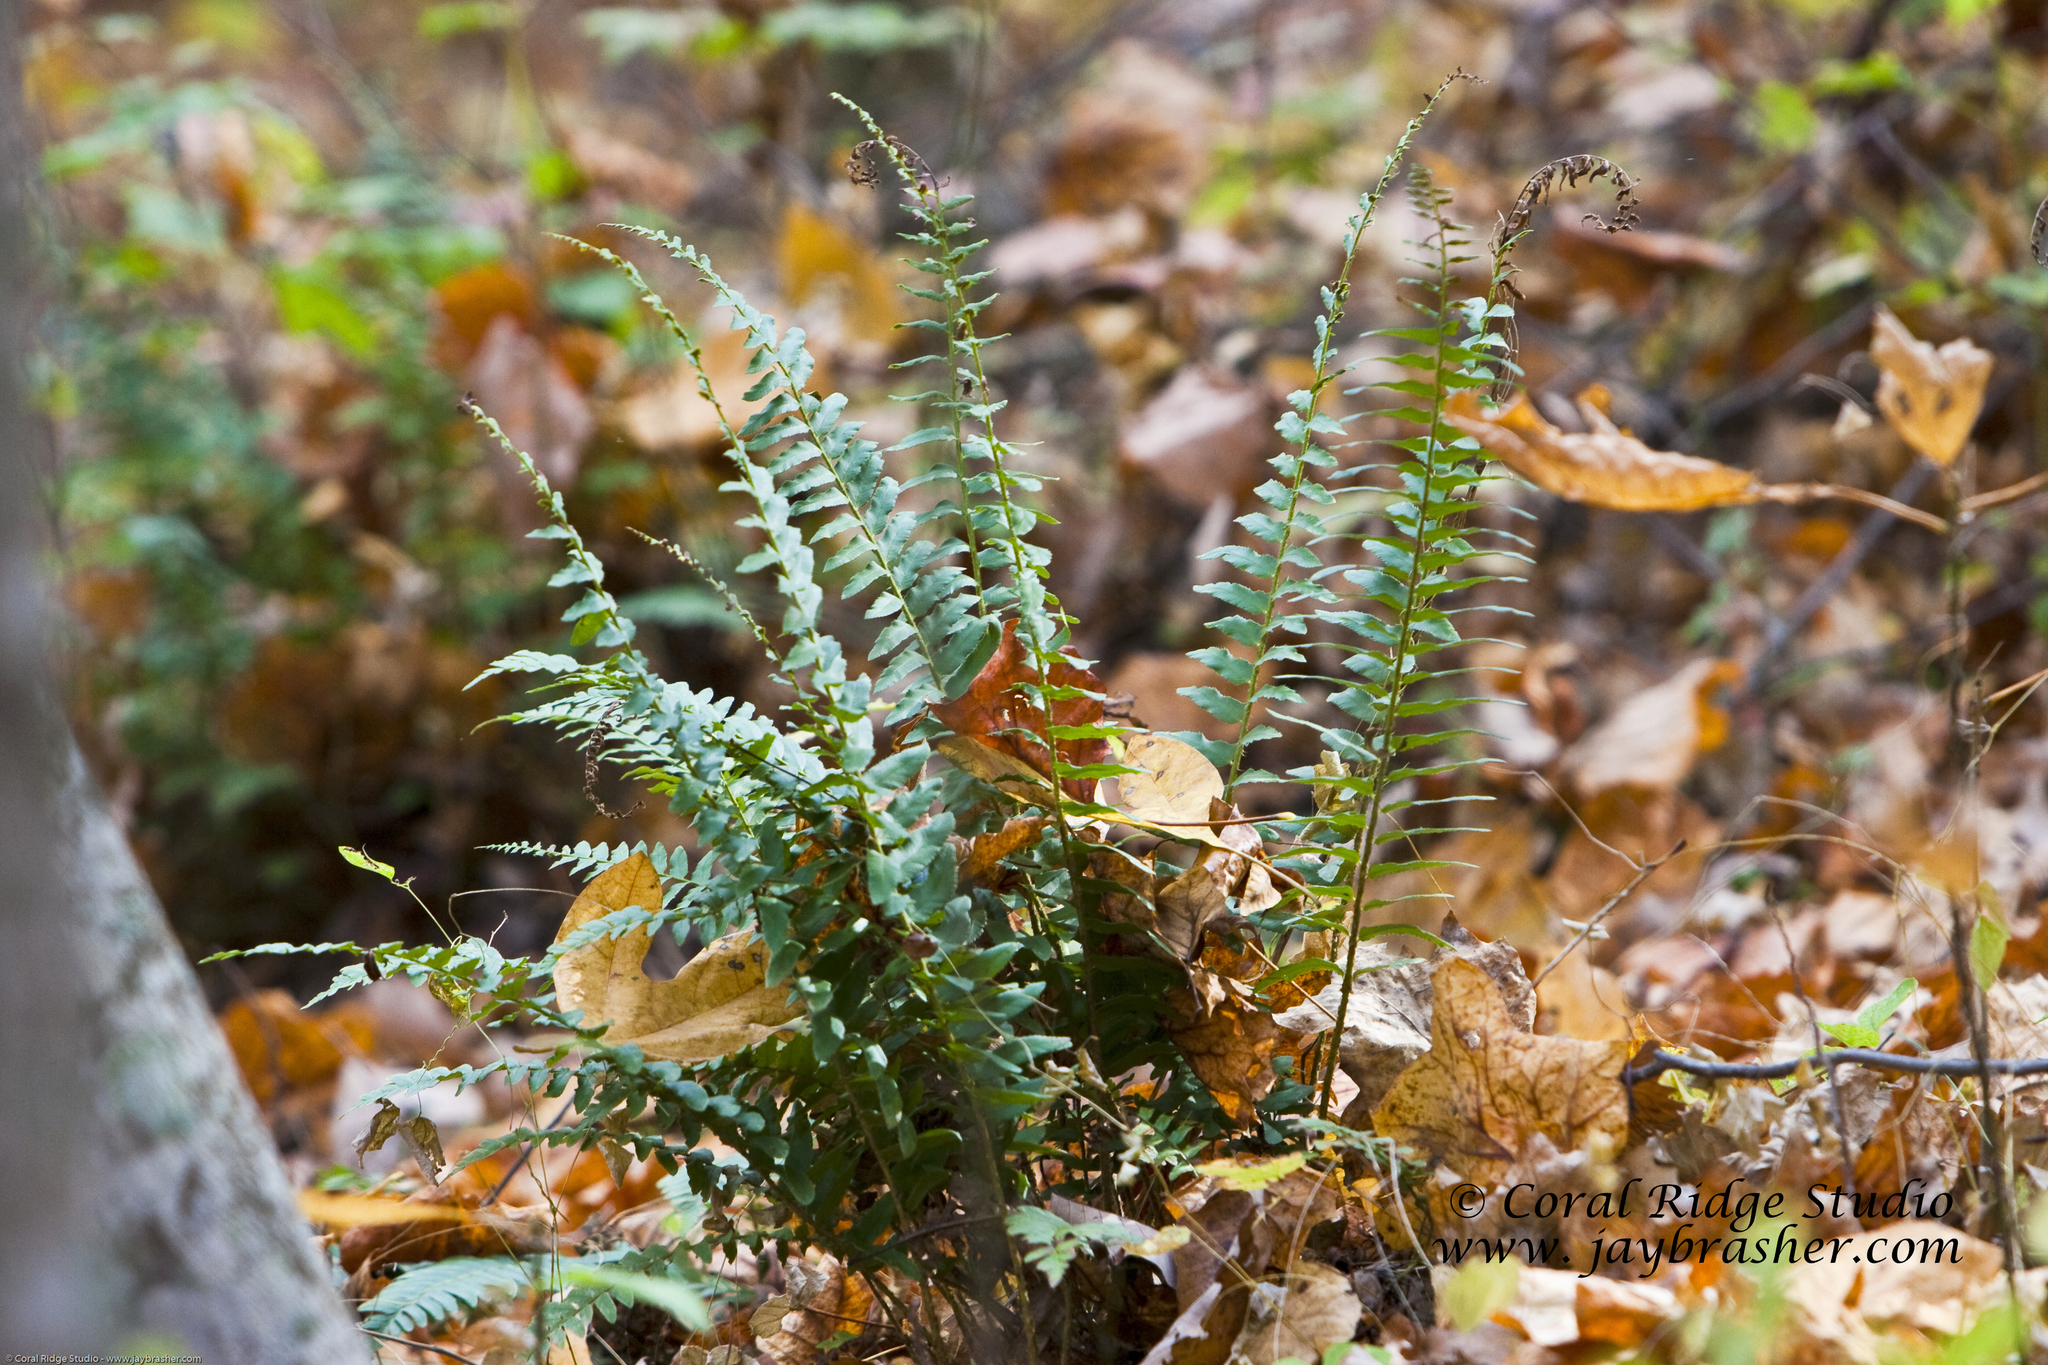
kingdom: Plantae
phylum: Tracheophyta
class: Polypodiopsida
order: Polypodiales
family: Dryopteridaceae
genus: Polystichum
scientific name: Polystichum acrostichoides
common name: Christmas fern
